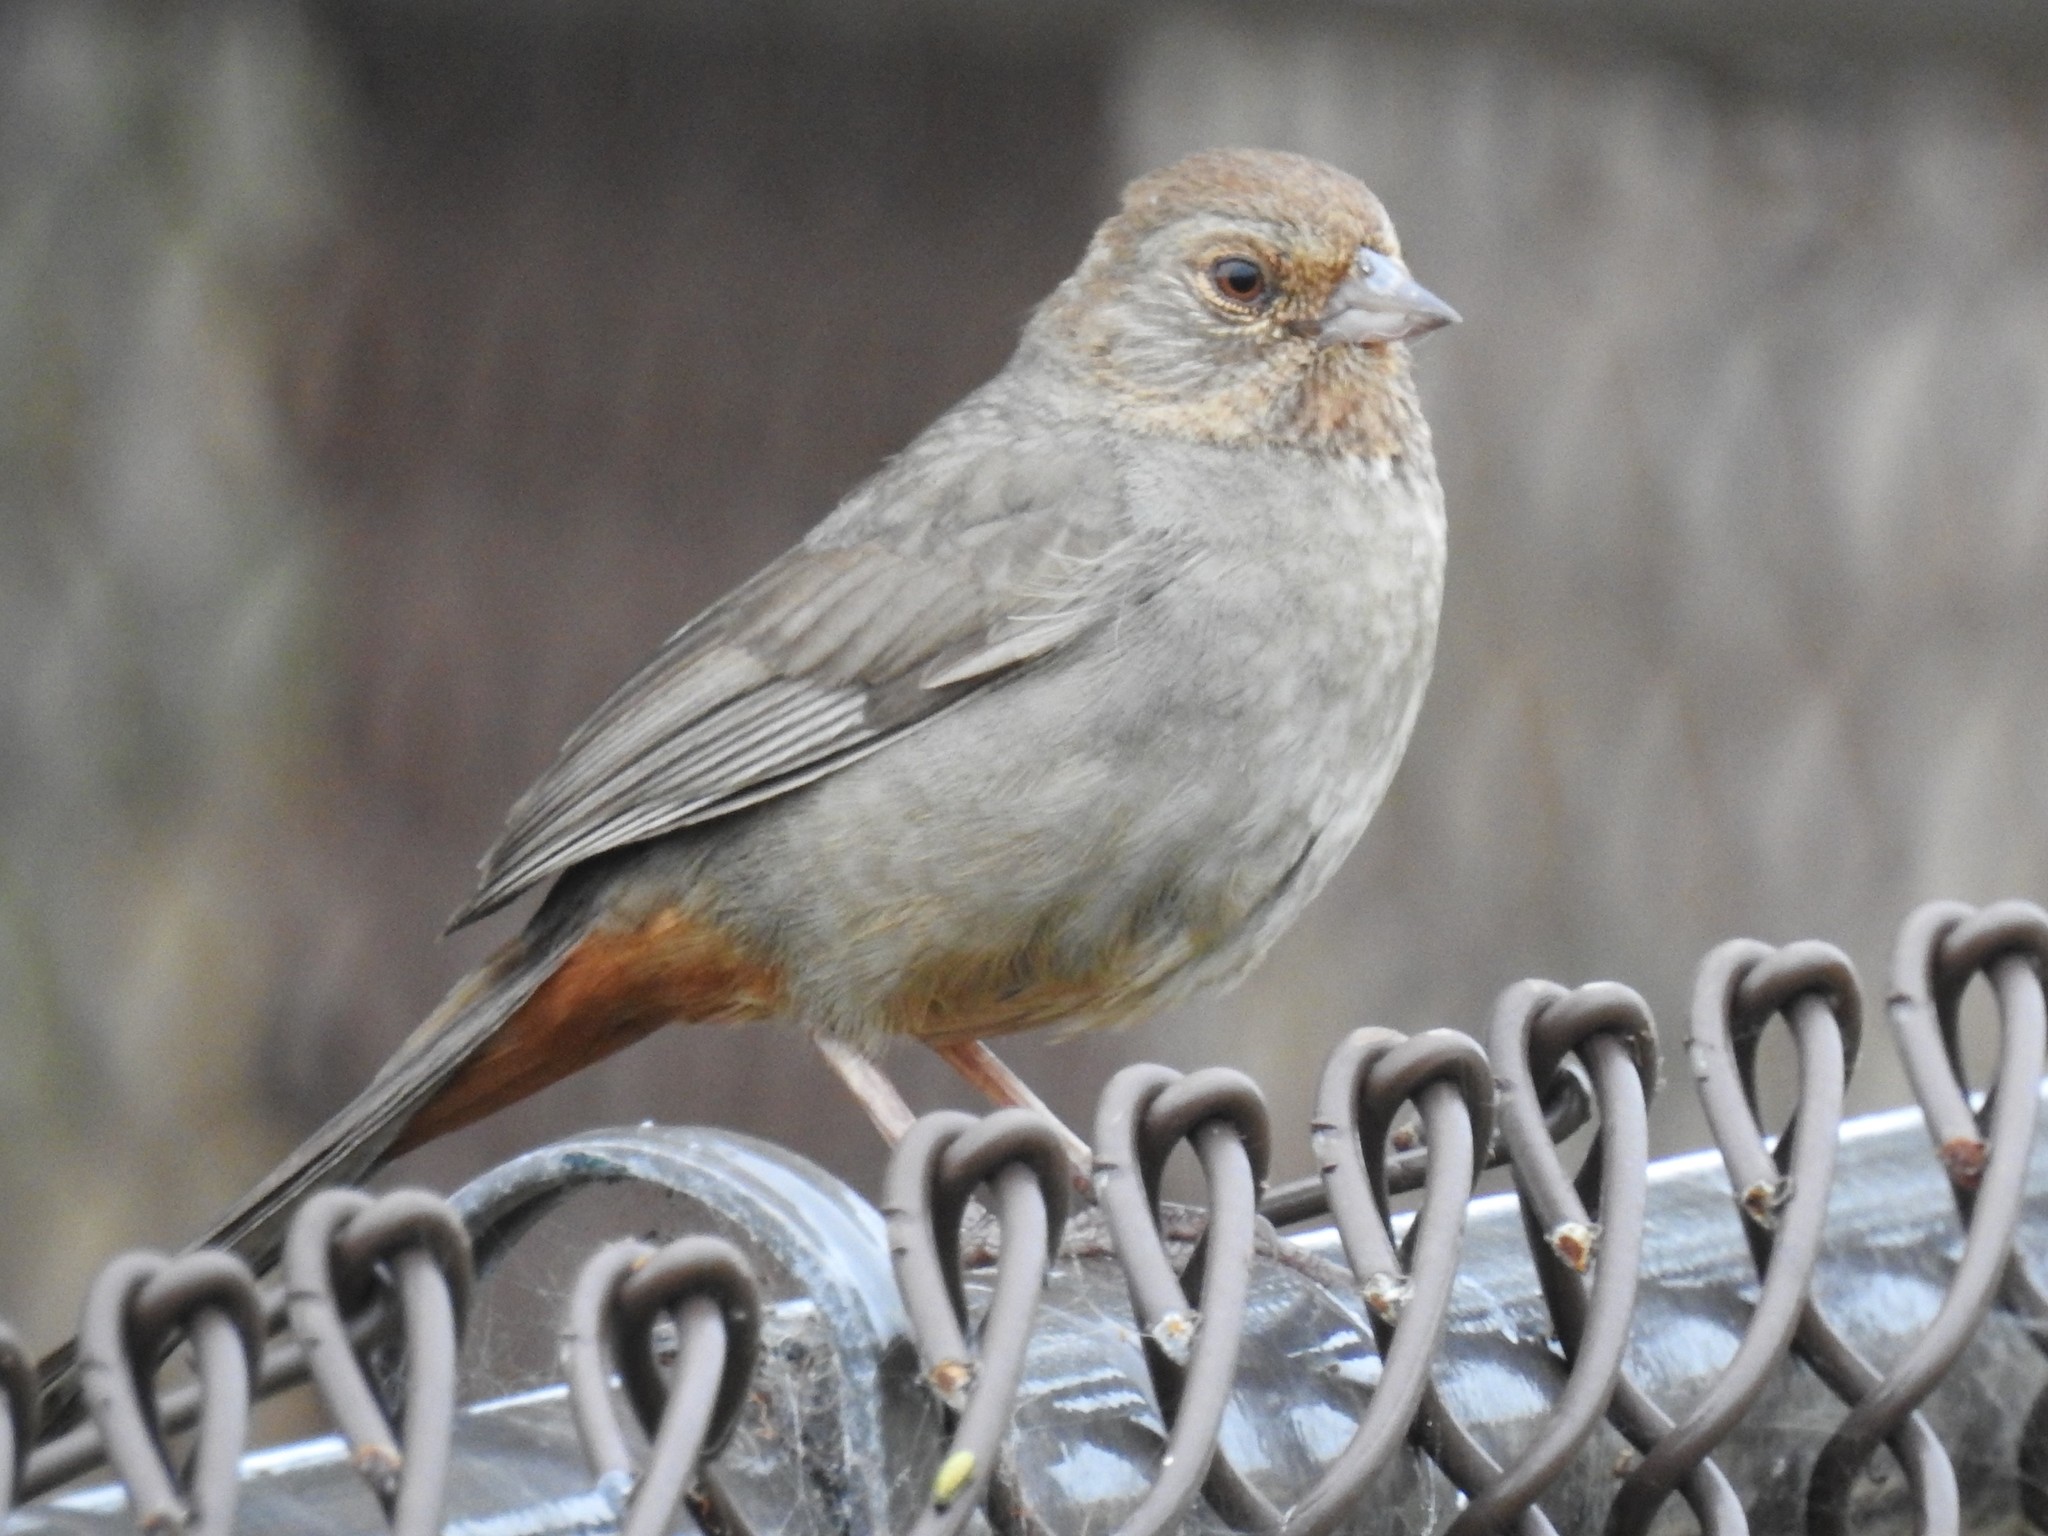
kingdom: Animalia
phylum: Chordata
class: Aves
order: Passeriformes
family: Passerellidae
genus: Melozone
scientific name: Melozone crissalis
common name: California towhee
